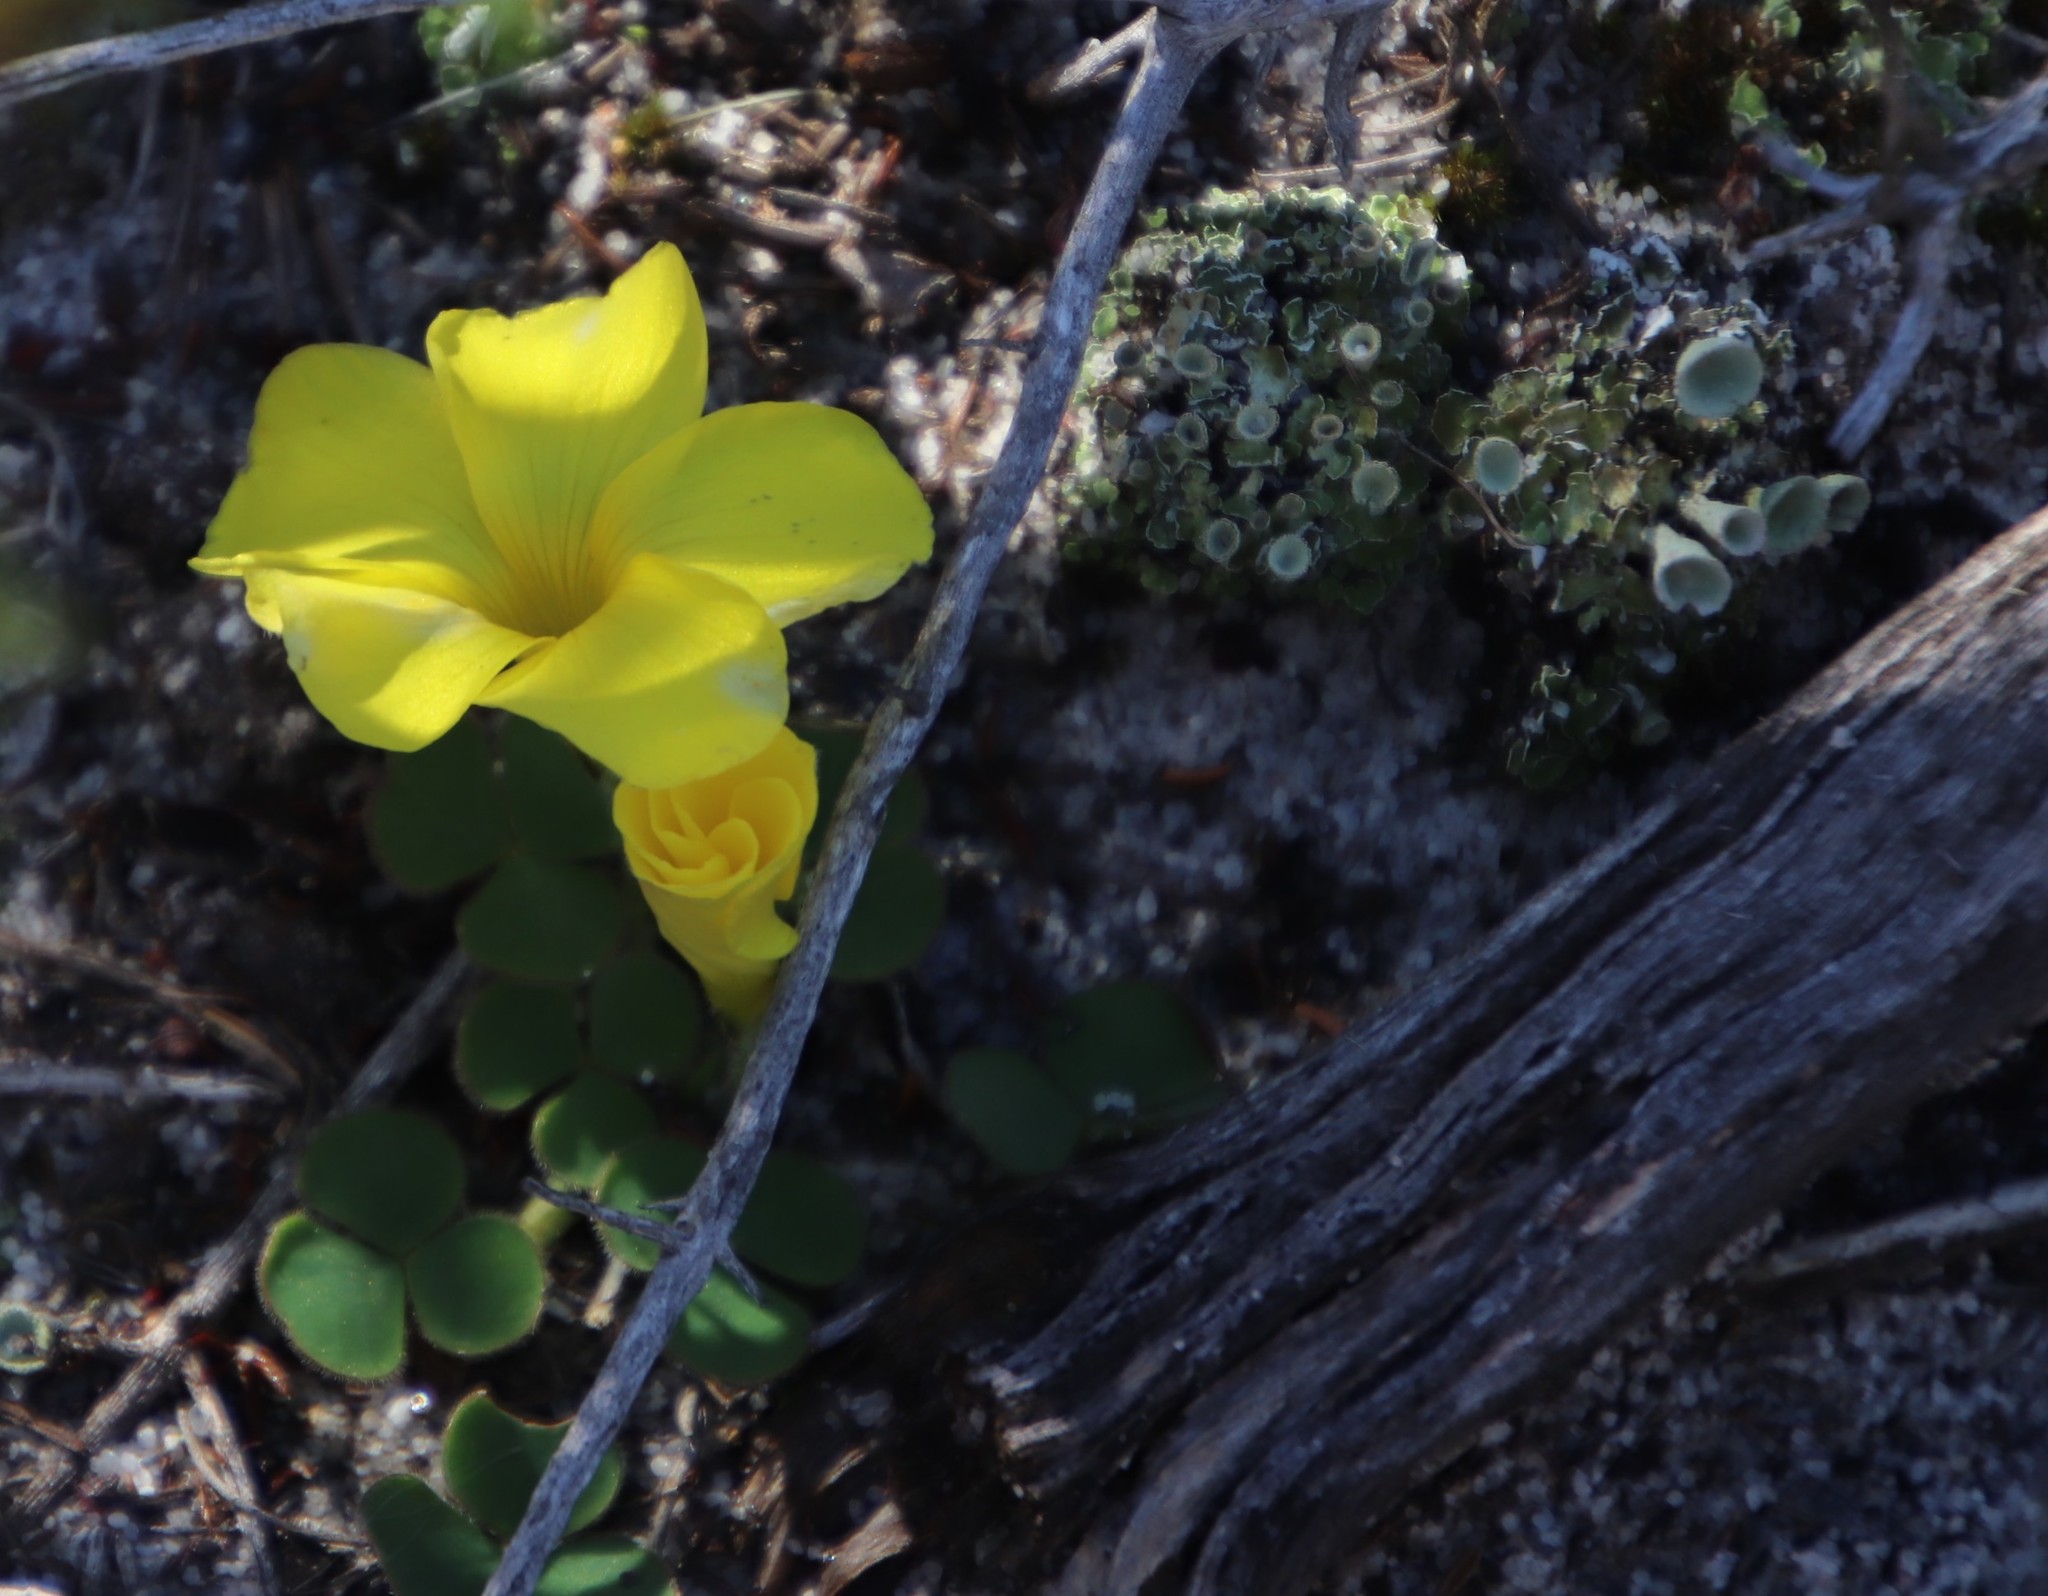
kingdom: Plantae
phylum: Tracheophyta
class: Magnoliopsida
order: Oxalidales
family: Oxalidaceae
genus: Oxalis
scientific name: Oxalis luteola
